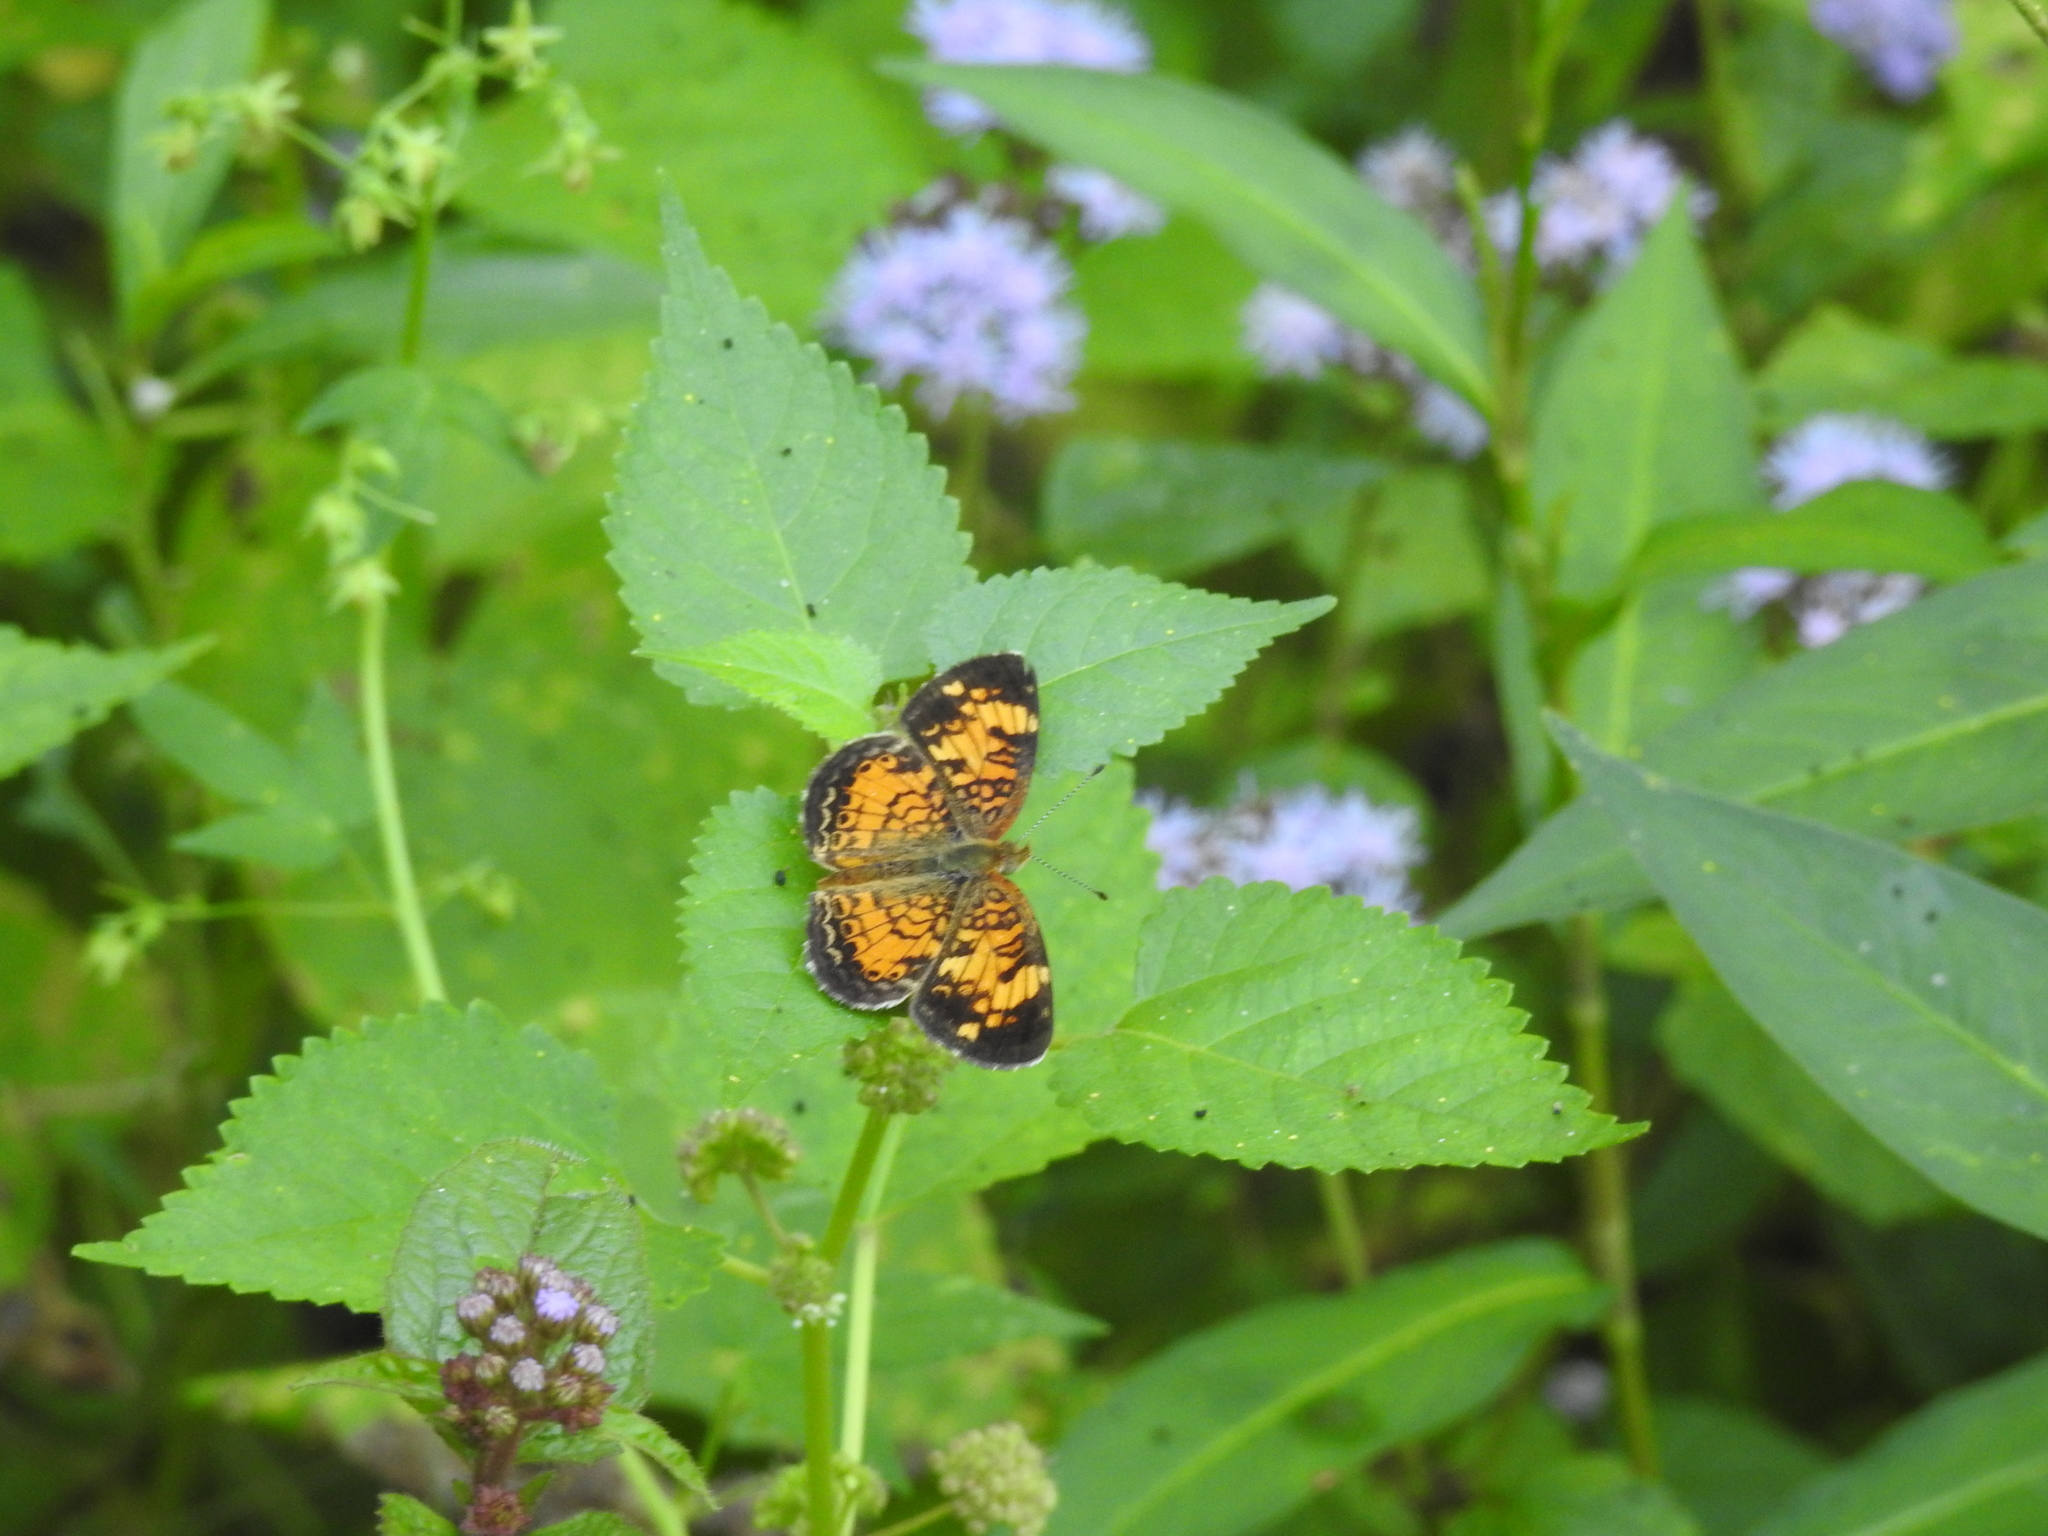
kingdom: Animalia
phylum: Arthropoda
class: Insecta
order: Lepidoptera
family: Nymphalidae
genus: Phyciodes
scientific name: Phyciodes tharos
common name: Pearl crescent
